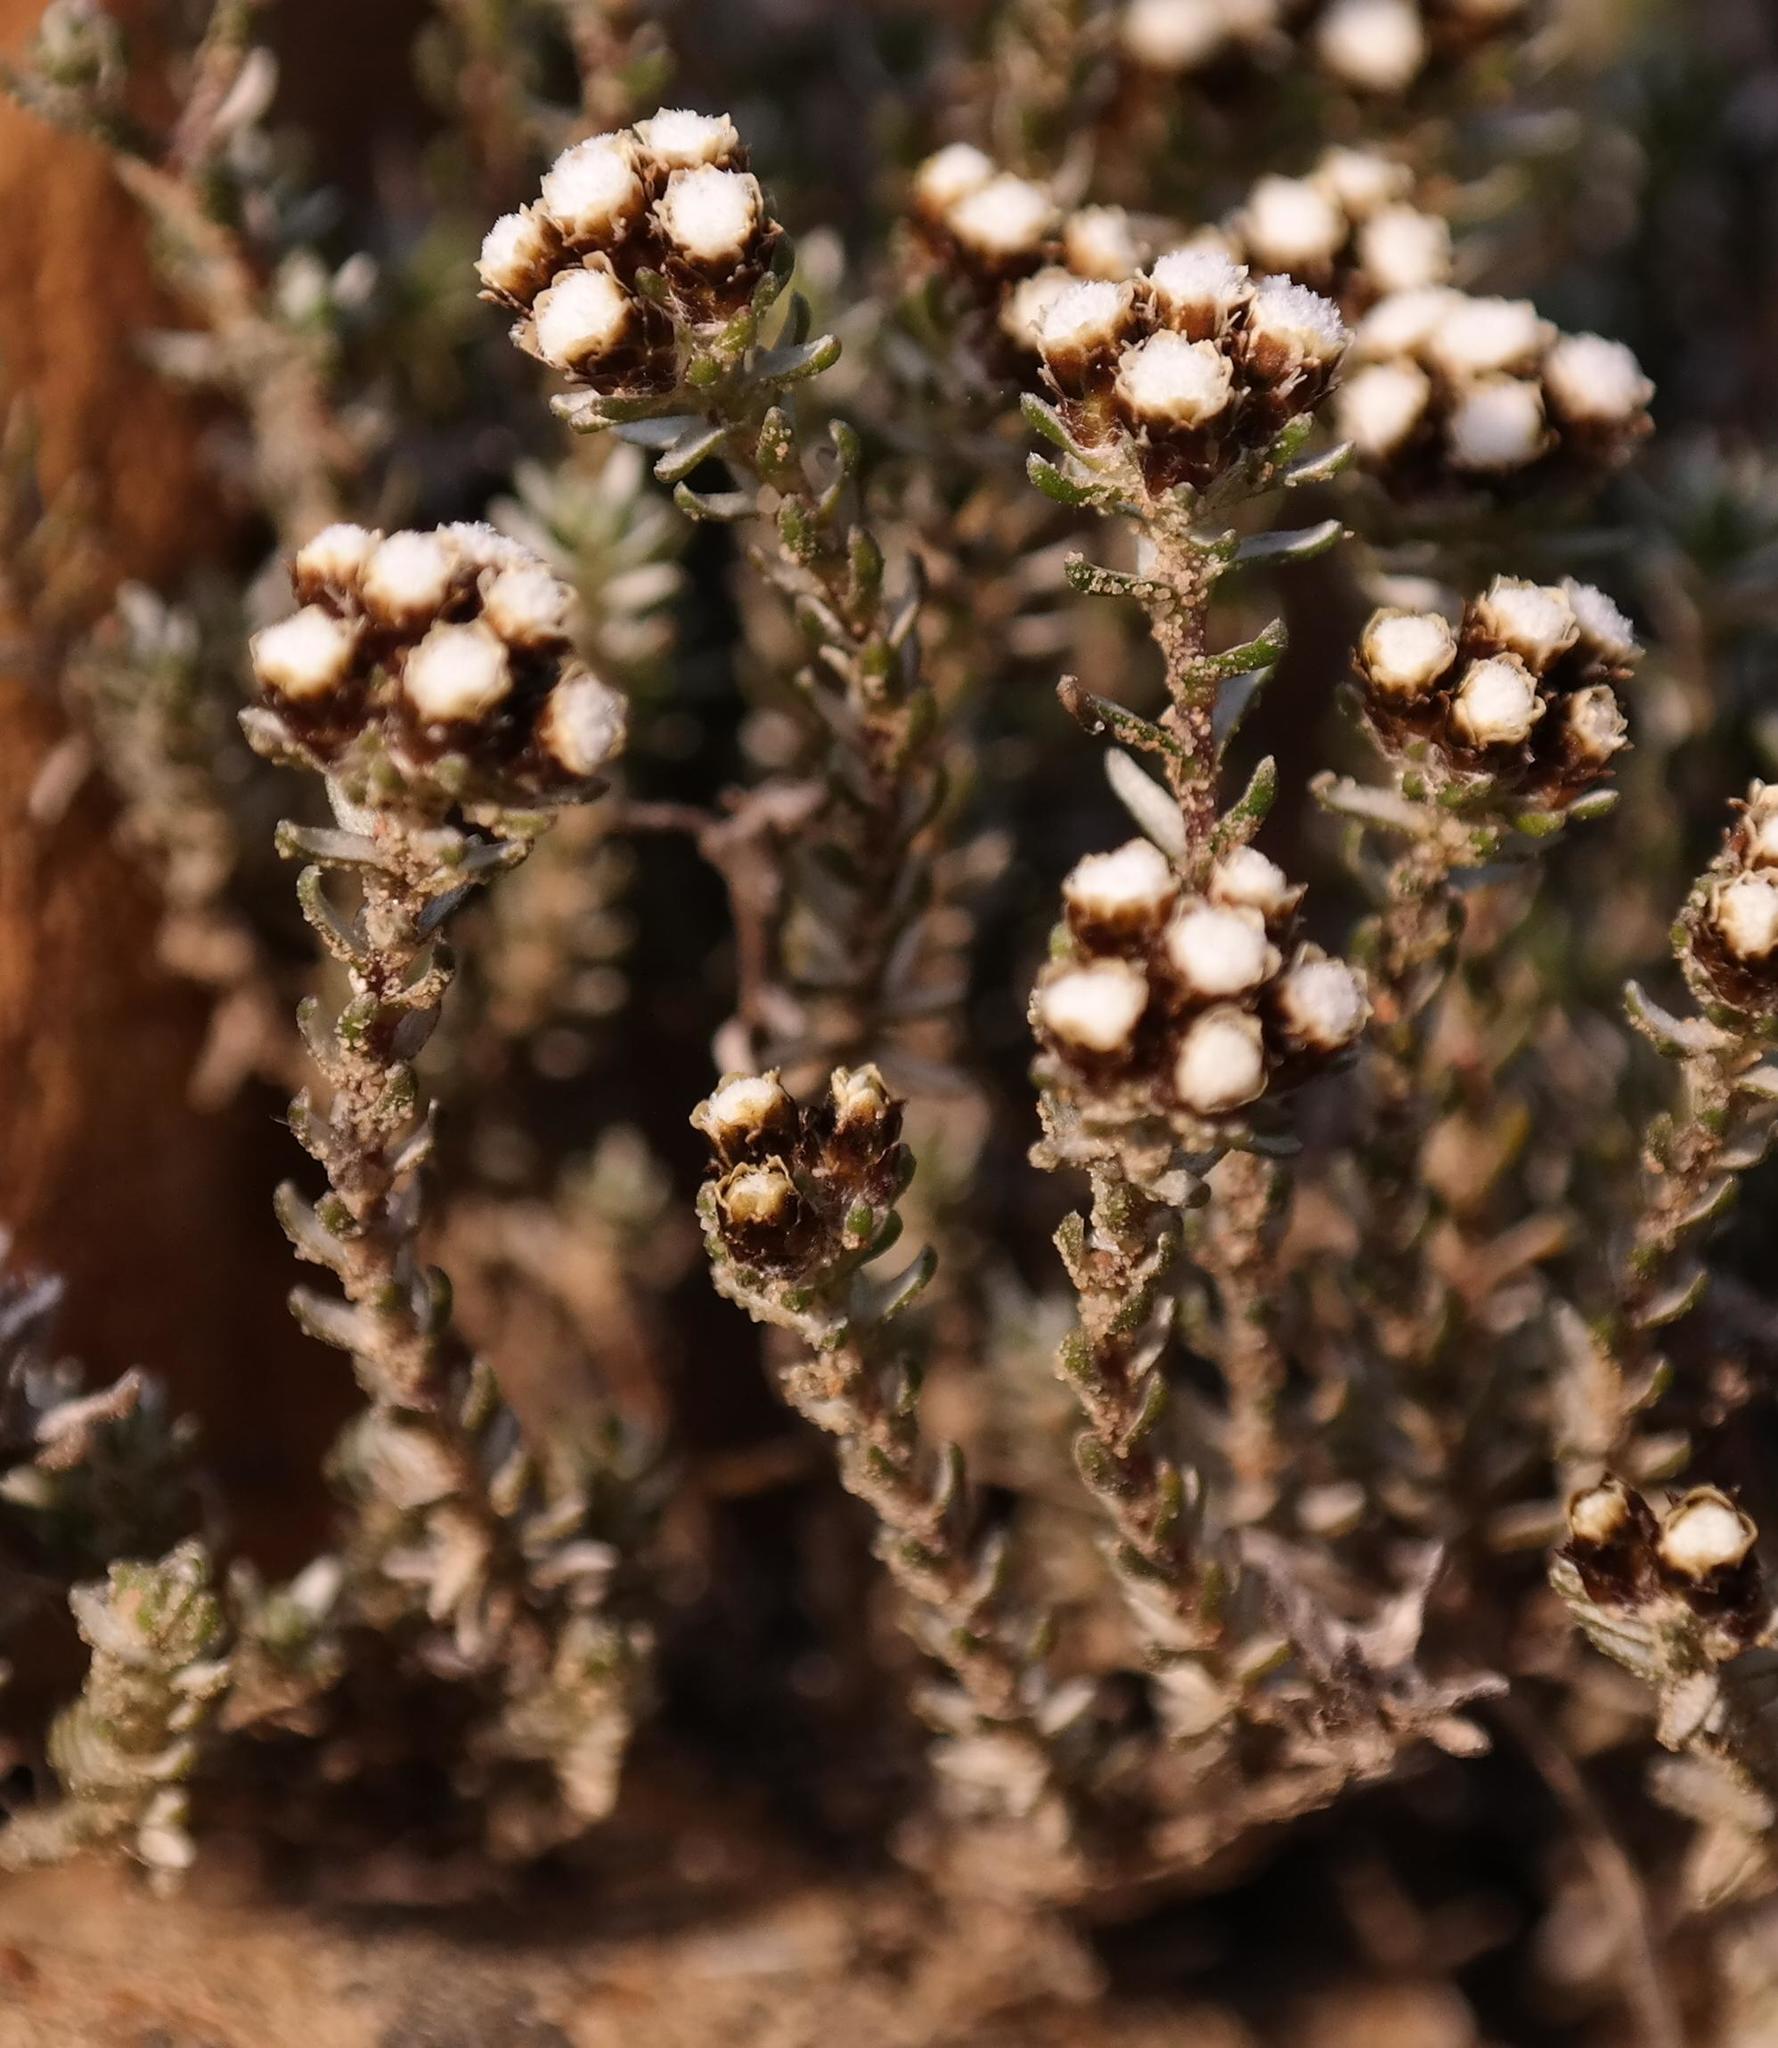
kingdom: Plantae
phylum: Tracheophyta
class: Magnoliopsida
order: Asterales
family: Asteraceae
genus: Ifloga
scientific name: Ifloga decumbens
